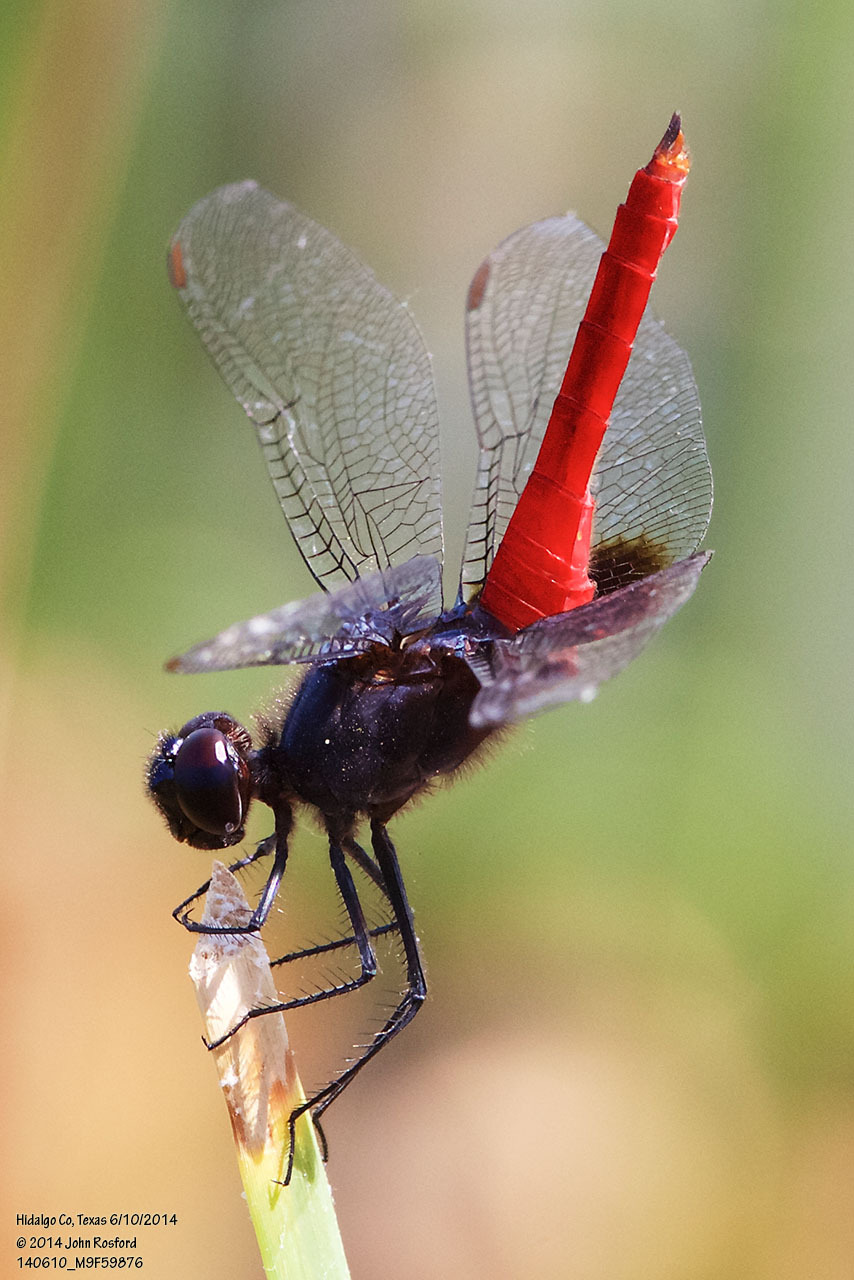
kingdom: Animalia
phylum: Arthropoda
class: Insecta
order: Odonata
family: Libellulidae
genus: Planiplax
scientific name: Planiplax sanguiniventris
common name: Mexican scarlet-tail
